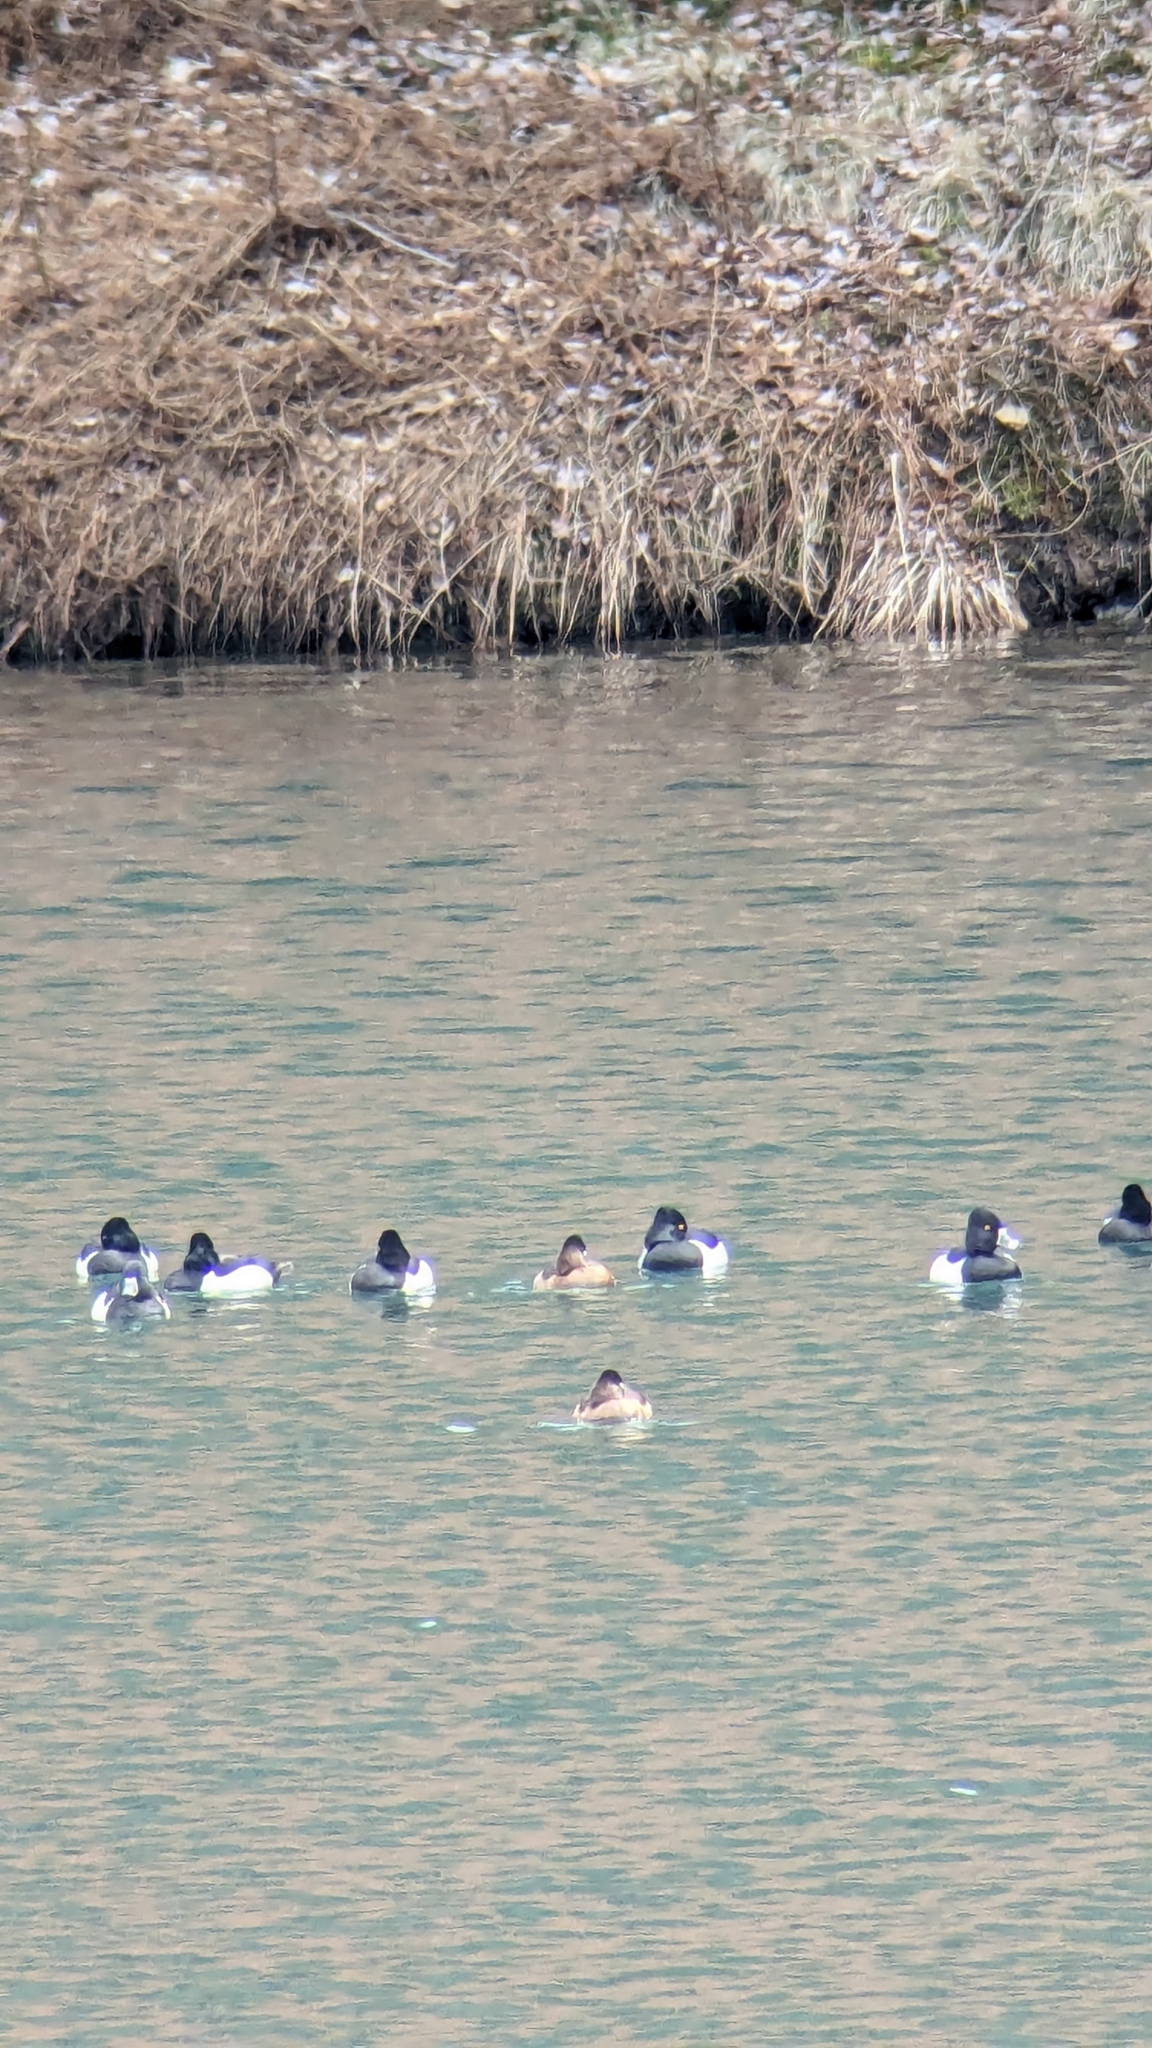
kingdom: Animalia
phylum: Chordata
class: Aves
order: Anseriformes
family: Anatidae
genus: Aythya
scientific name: Aythya collaris
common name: Ring-necked duck
